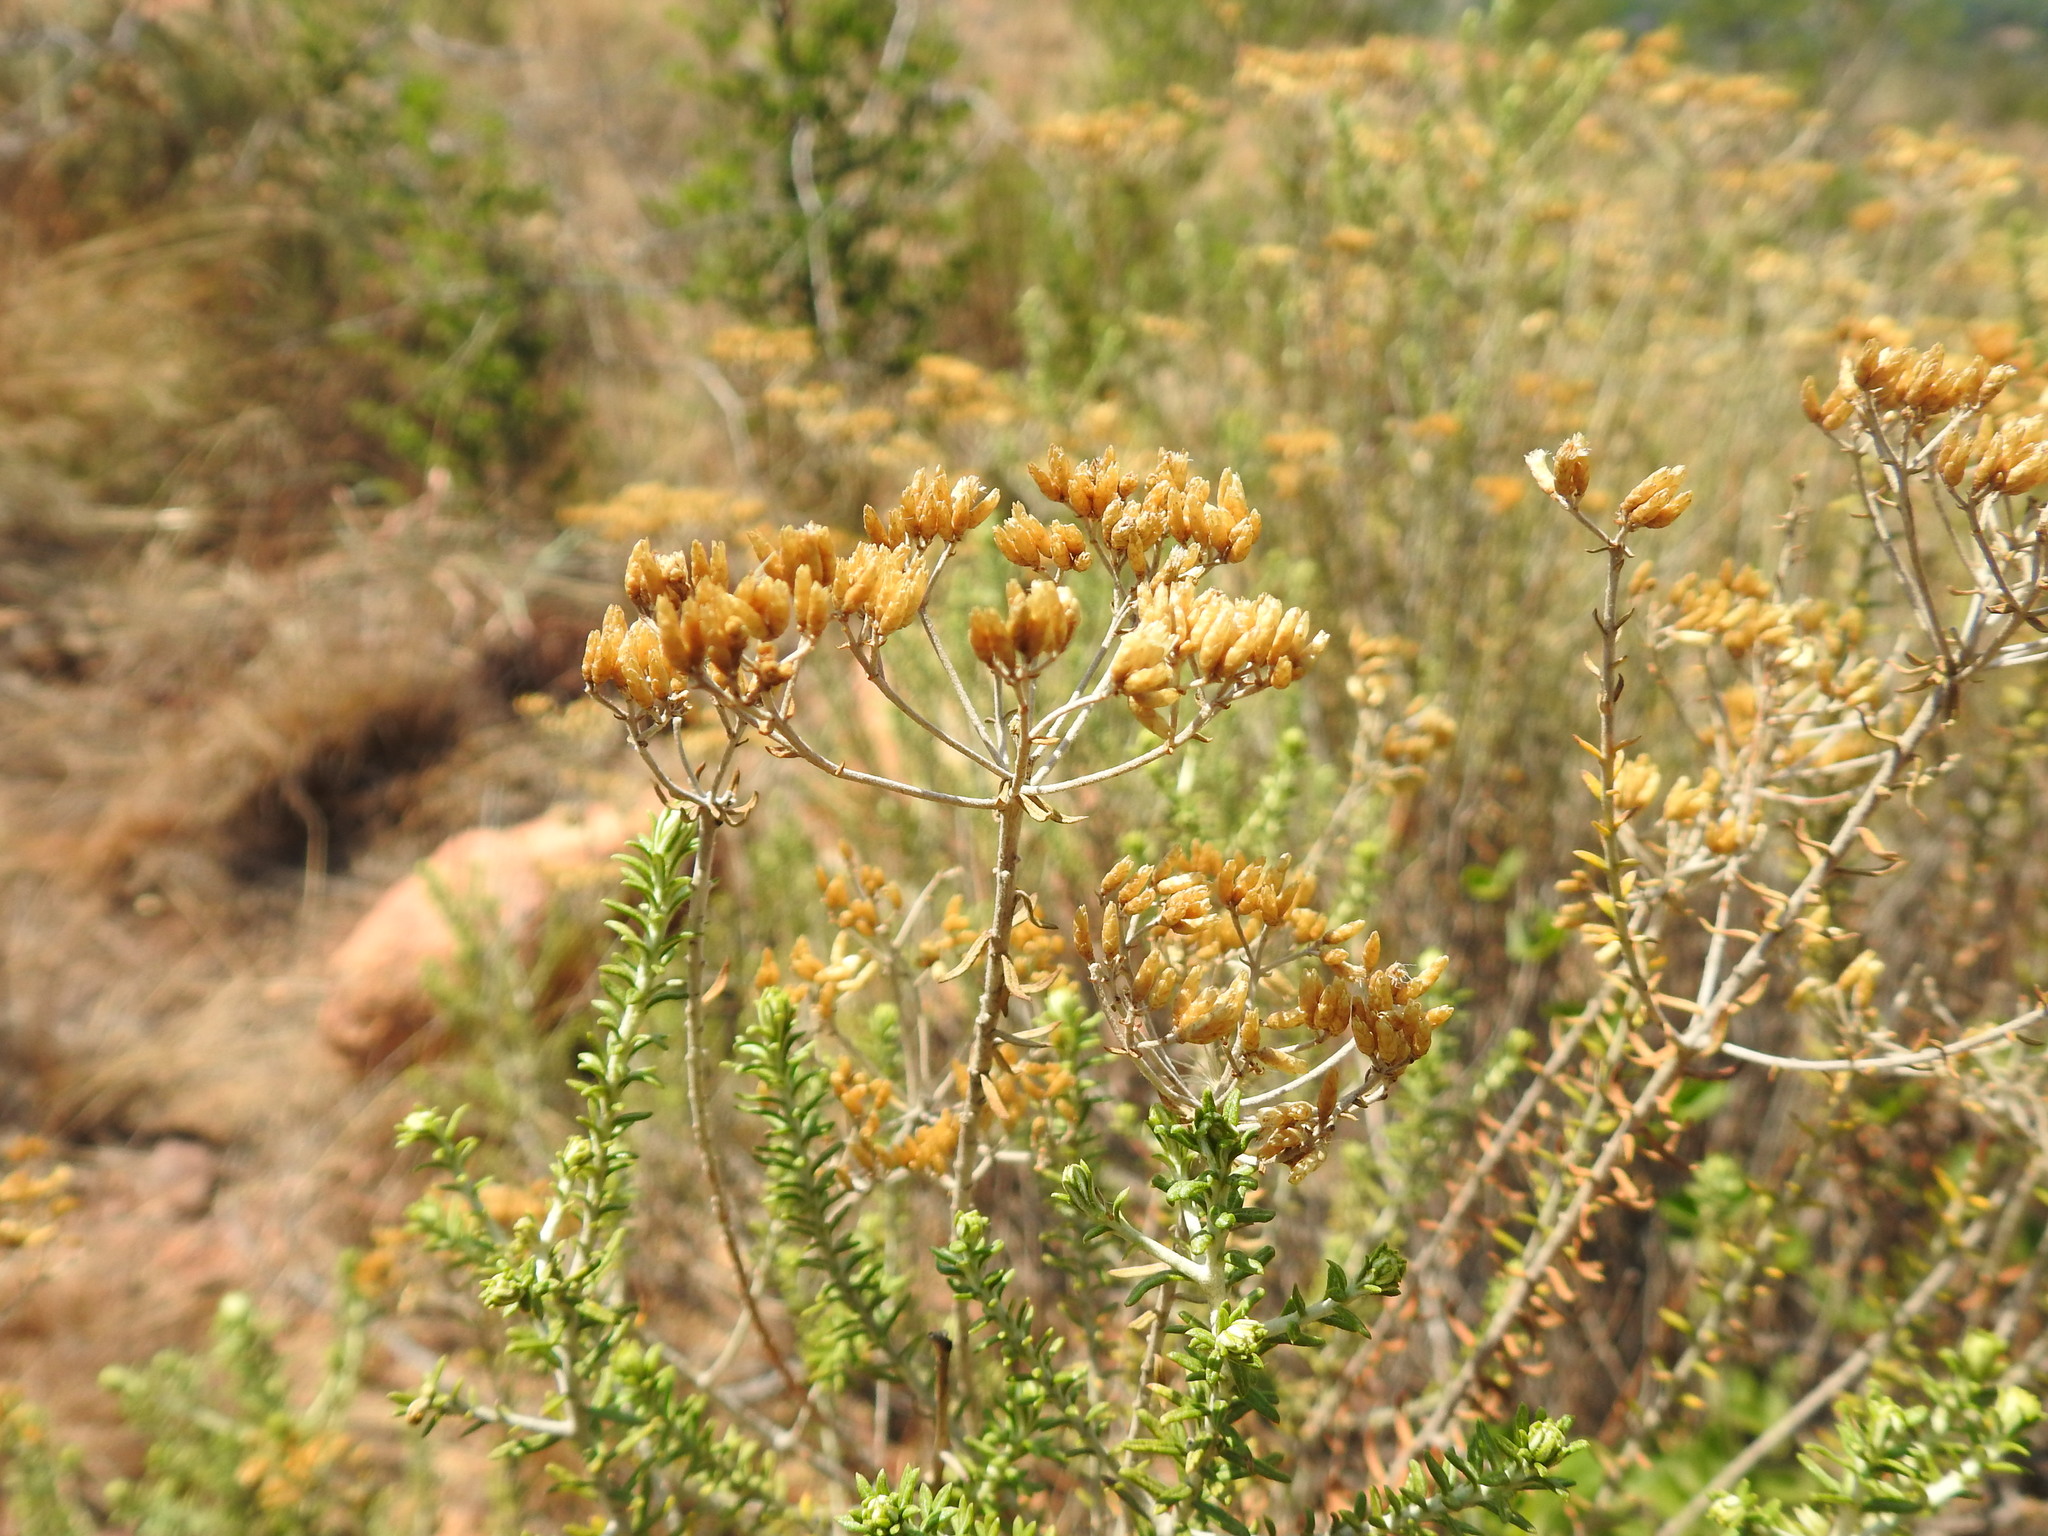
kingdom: Plantae
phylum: Tracheophyta
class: Magnoliopsida
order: Asterales
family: Asteraceae
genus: Helichrysum
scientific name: Helichrysum kraussii
